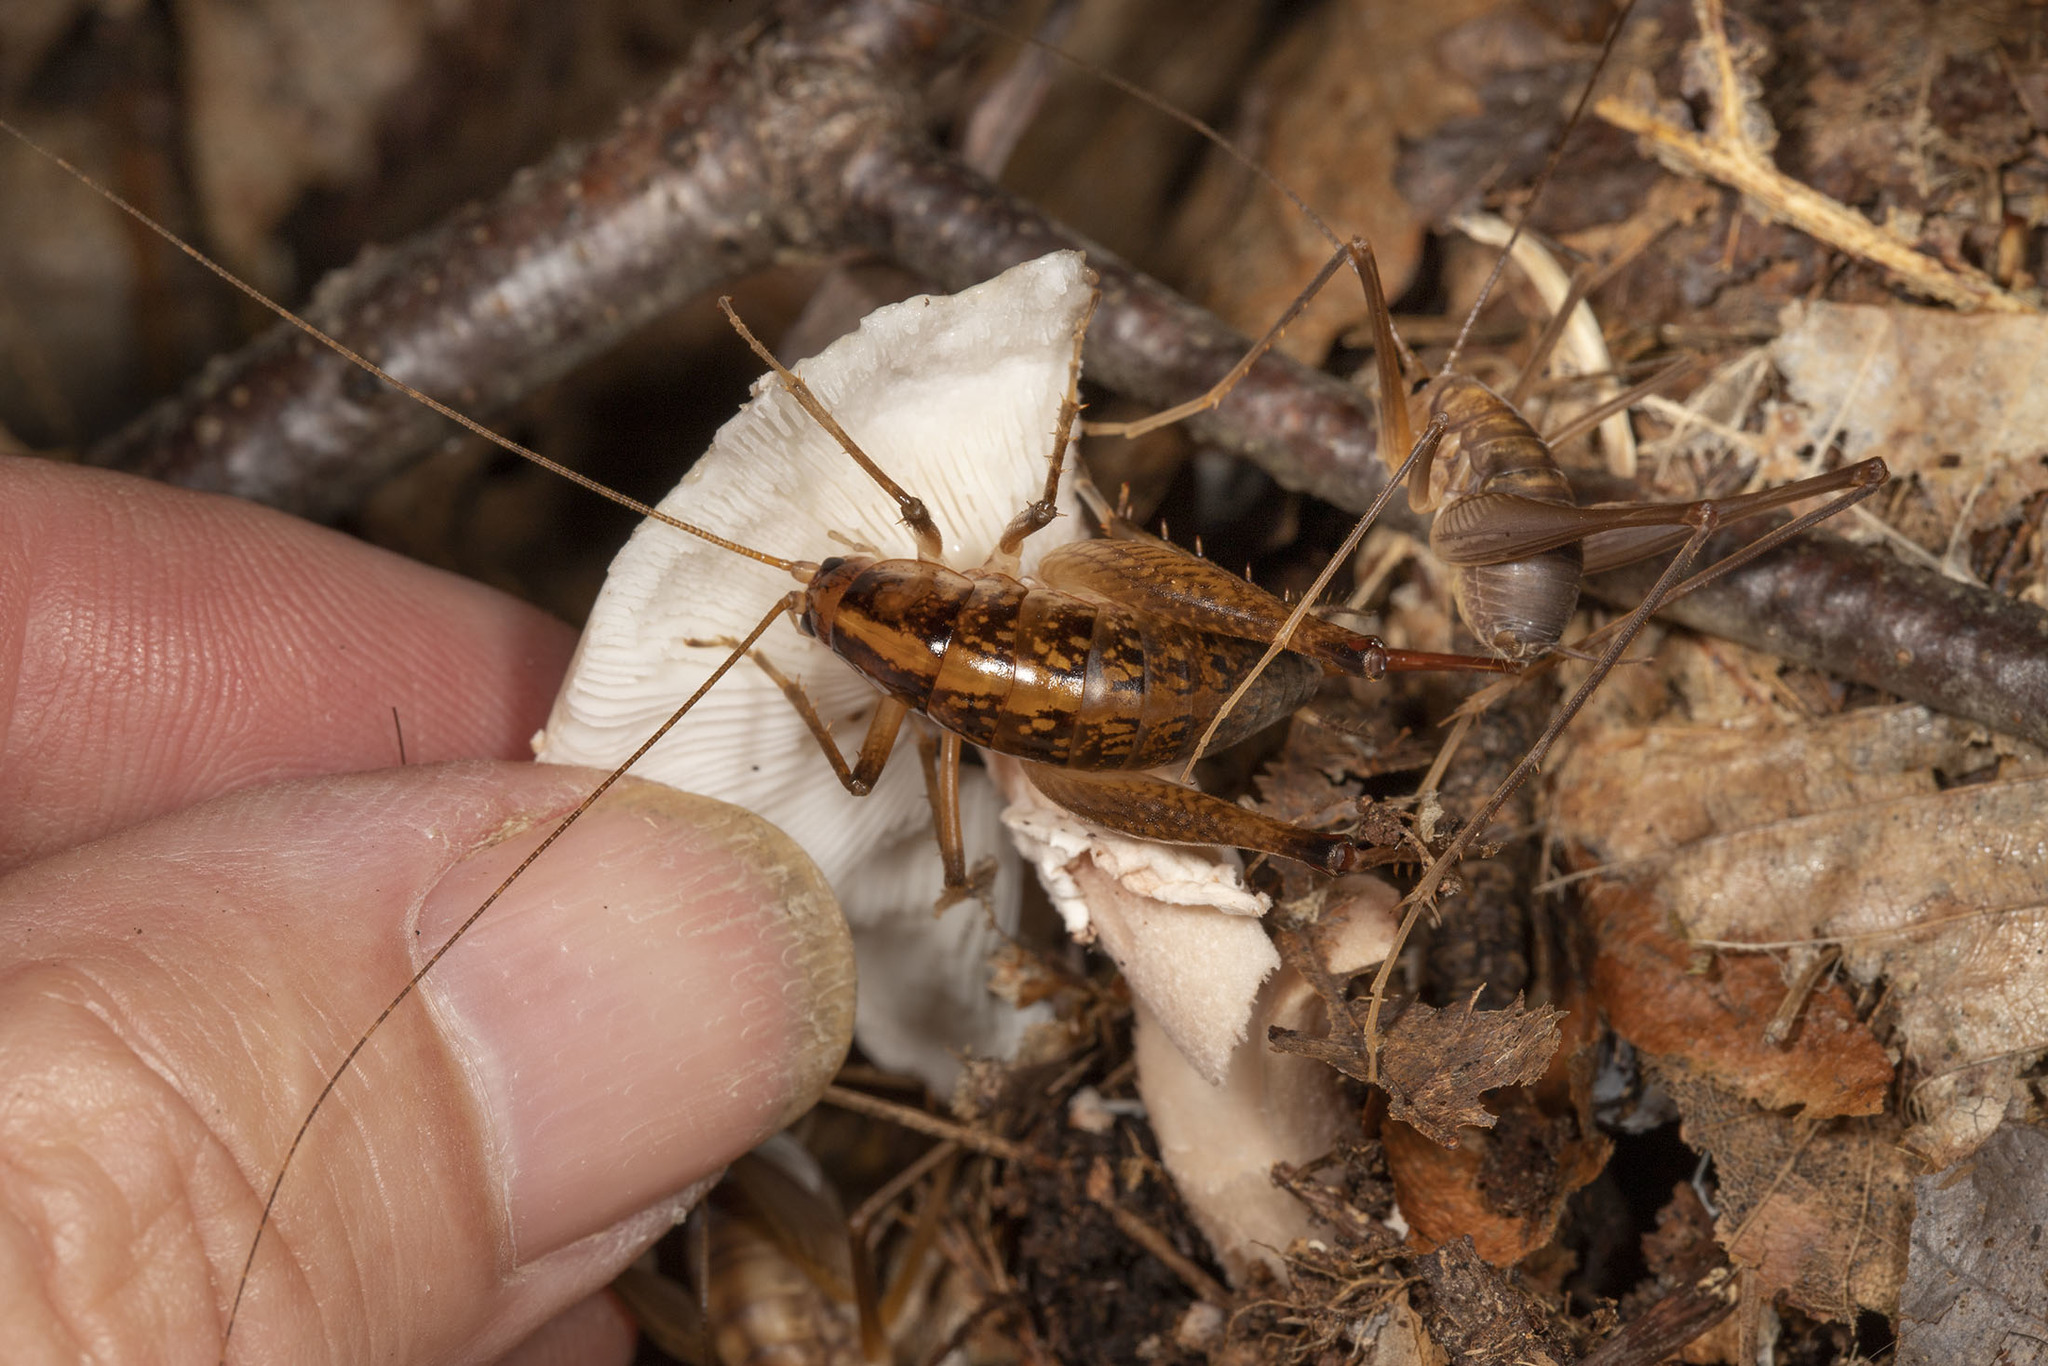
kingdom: Animalia
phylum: Arthropoda
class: Insecta
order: Orthoptera
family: Rhaphidophoridae
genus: Euhadenoecus
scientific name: Euhadenoecus puteanus
